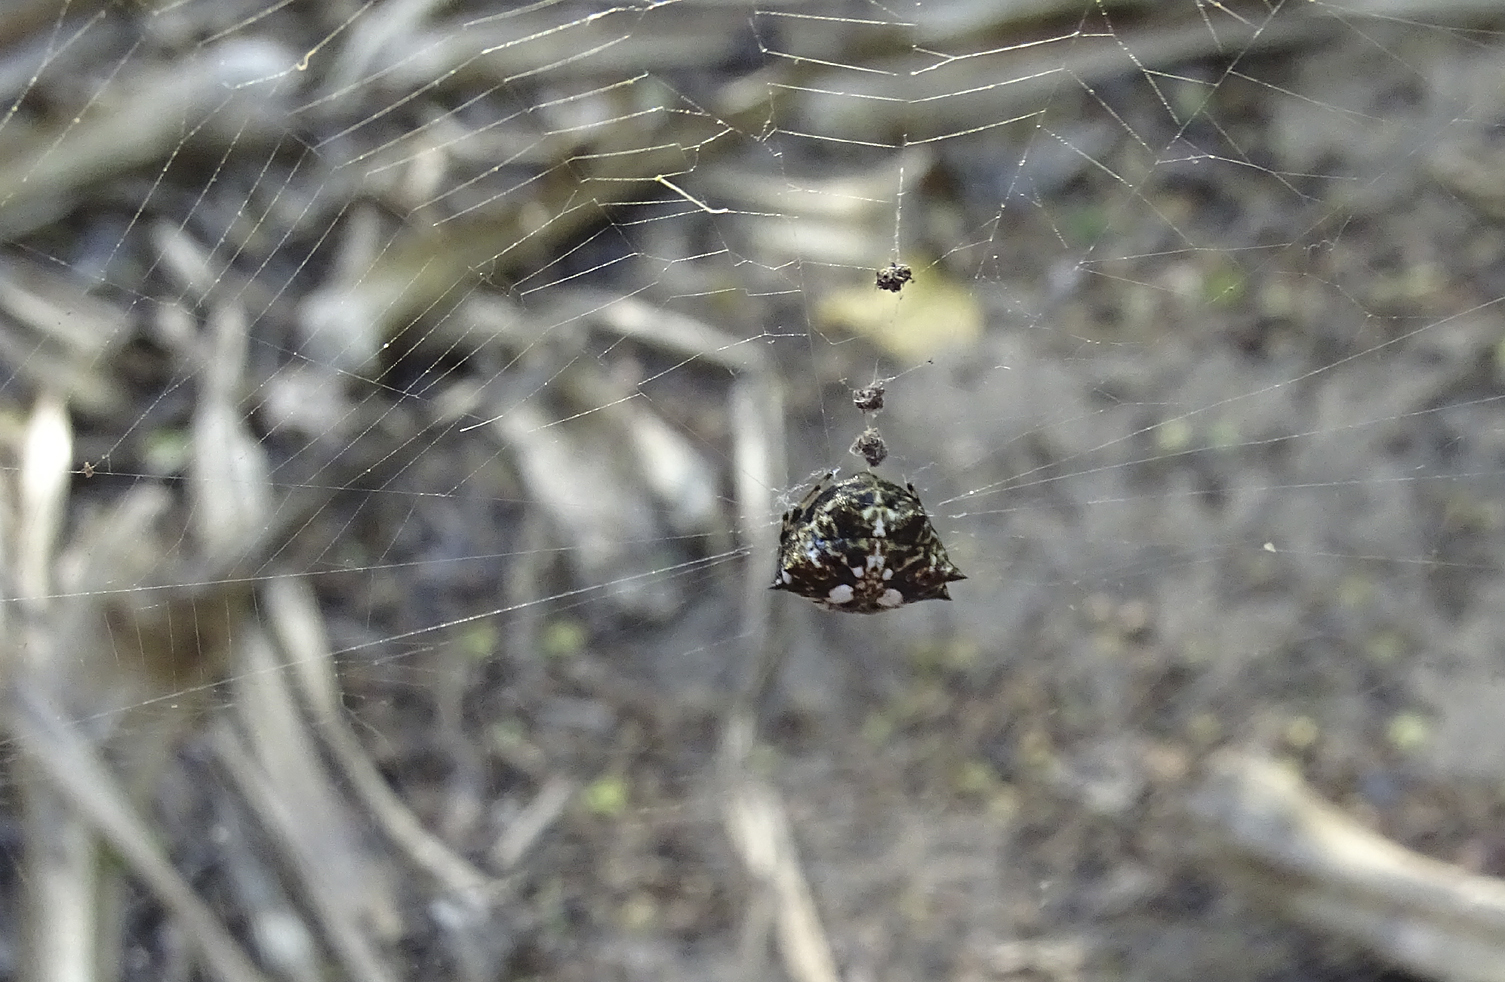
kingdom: Animalia
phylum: Arthropoda
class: Arachnida
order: Araneae
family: Araneidae
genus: Thelacantha
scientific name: Thelacantha brevispina
